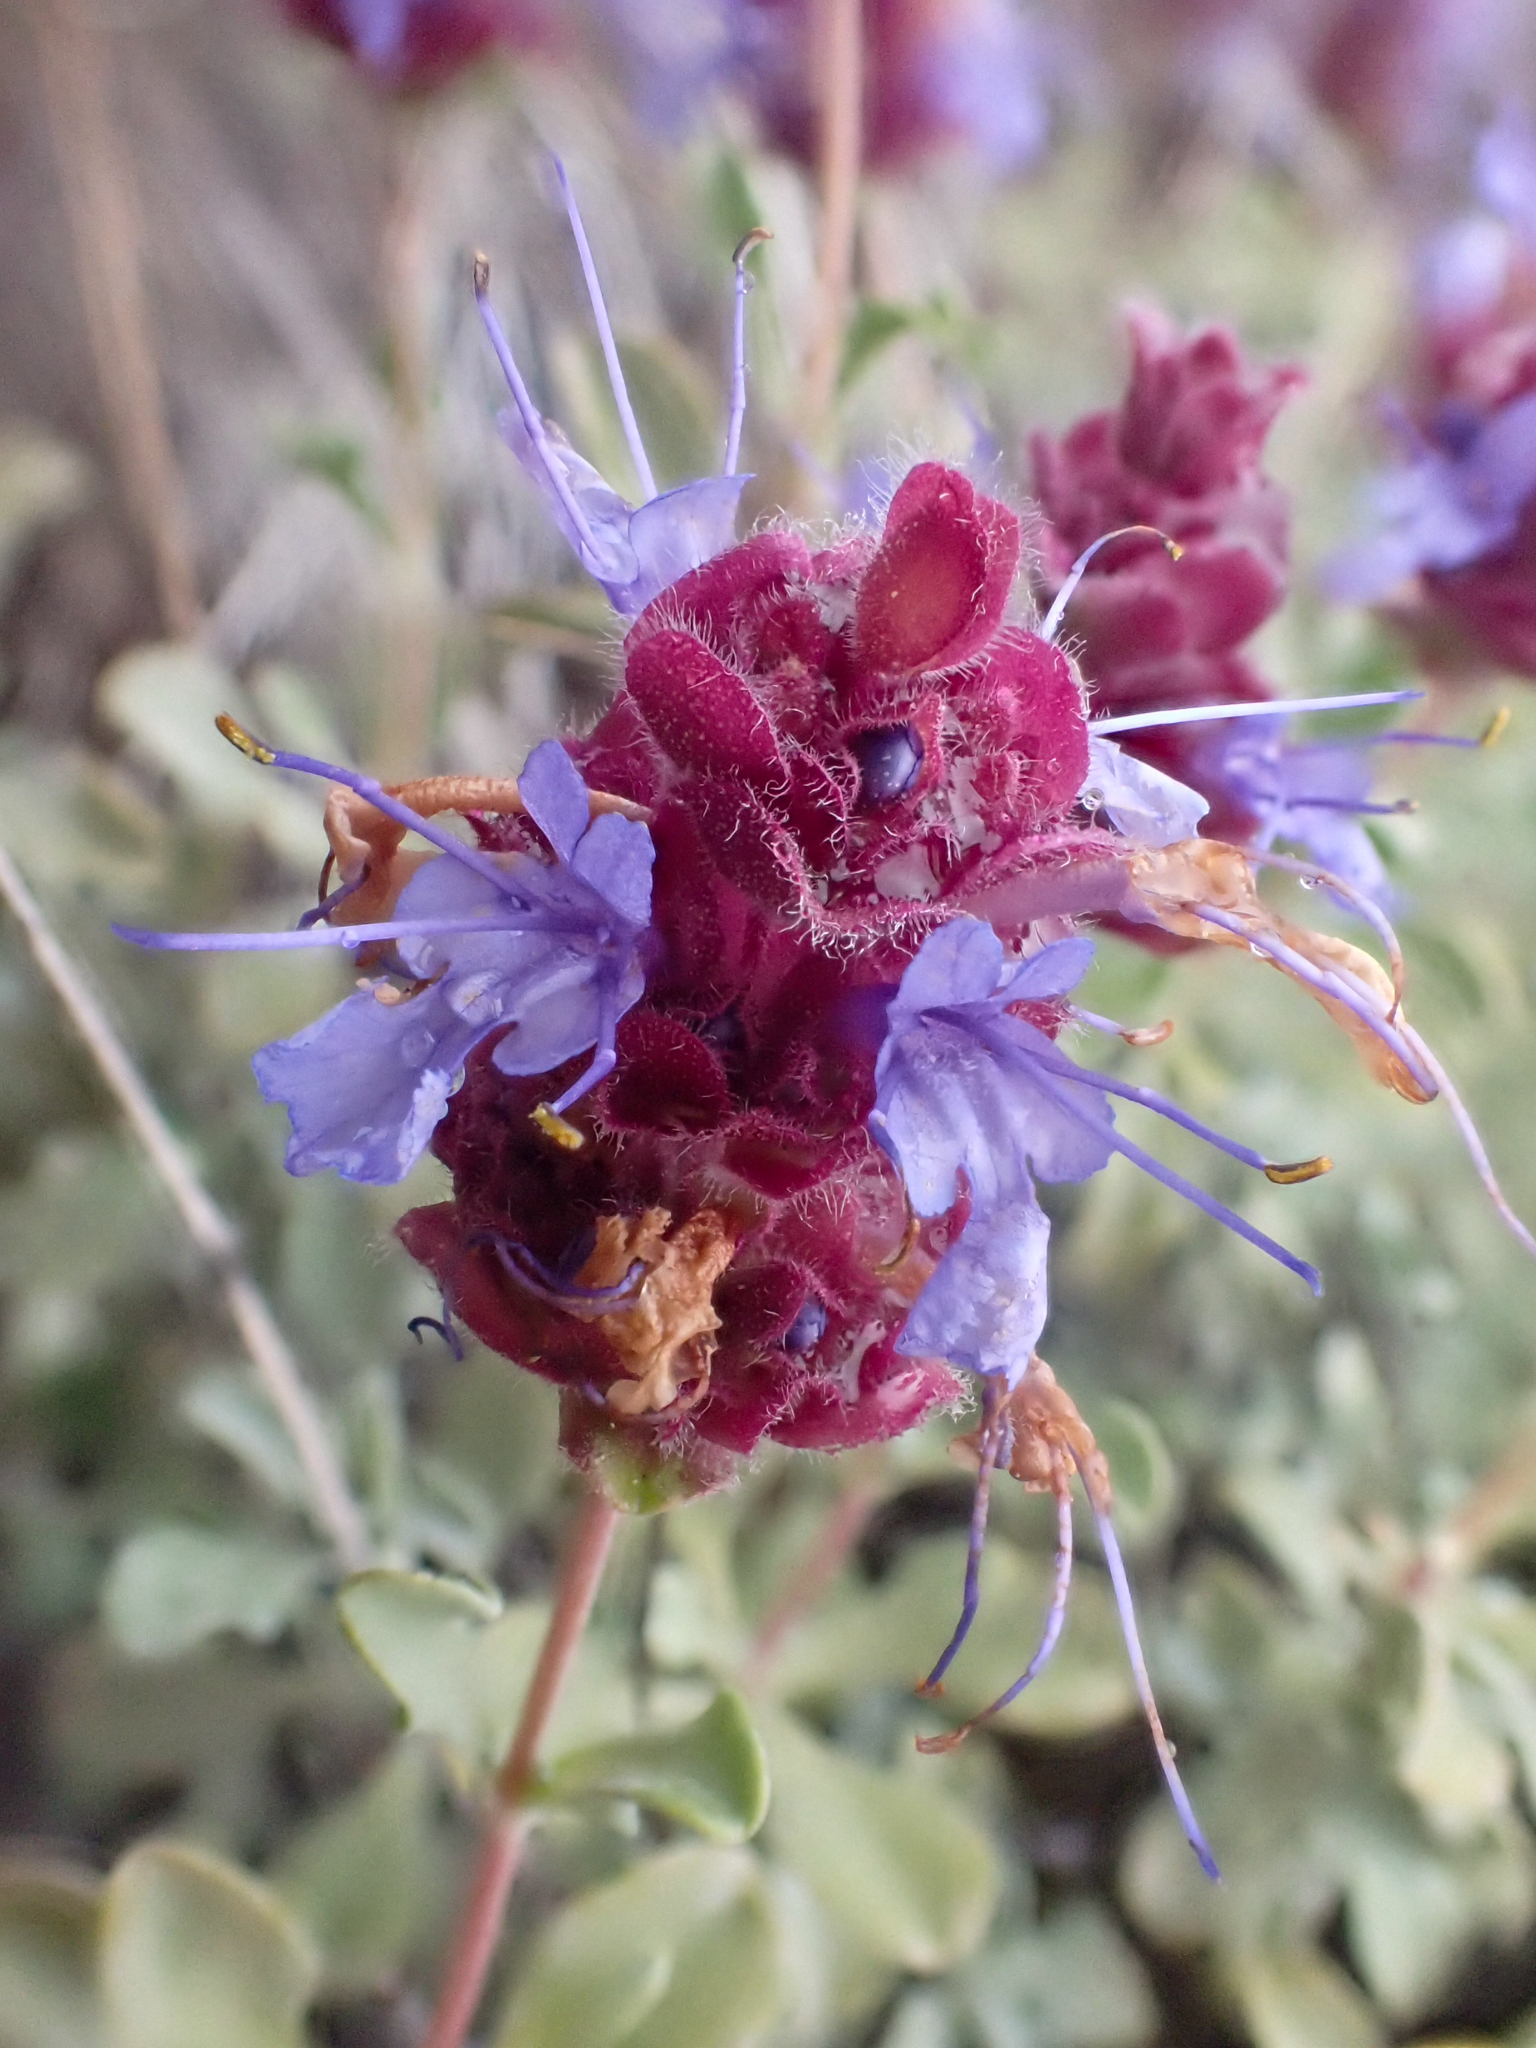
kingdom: Plantae
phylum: Tracheophyta
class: Magnoliopsida
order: Lamiales
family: Lamiaceae
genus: Salvia
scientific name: Salvia dorrii
